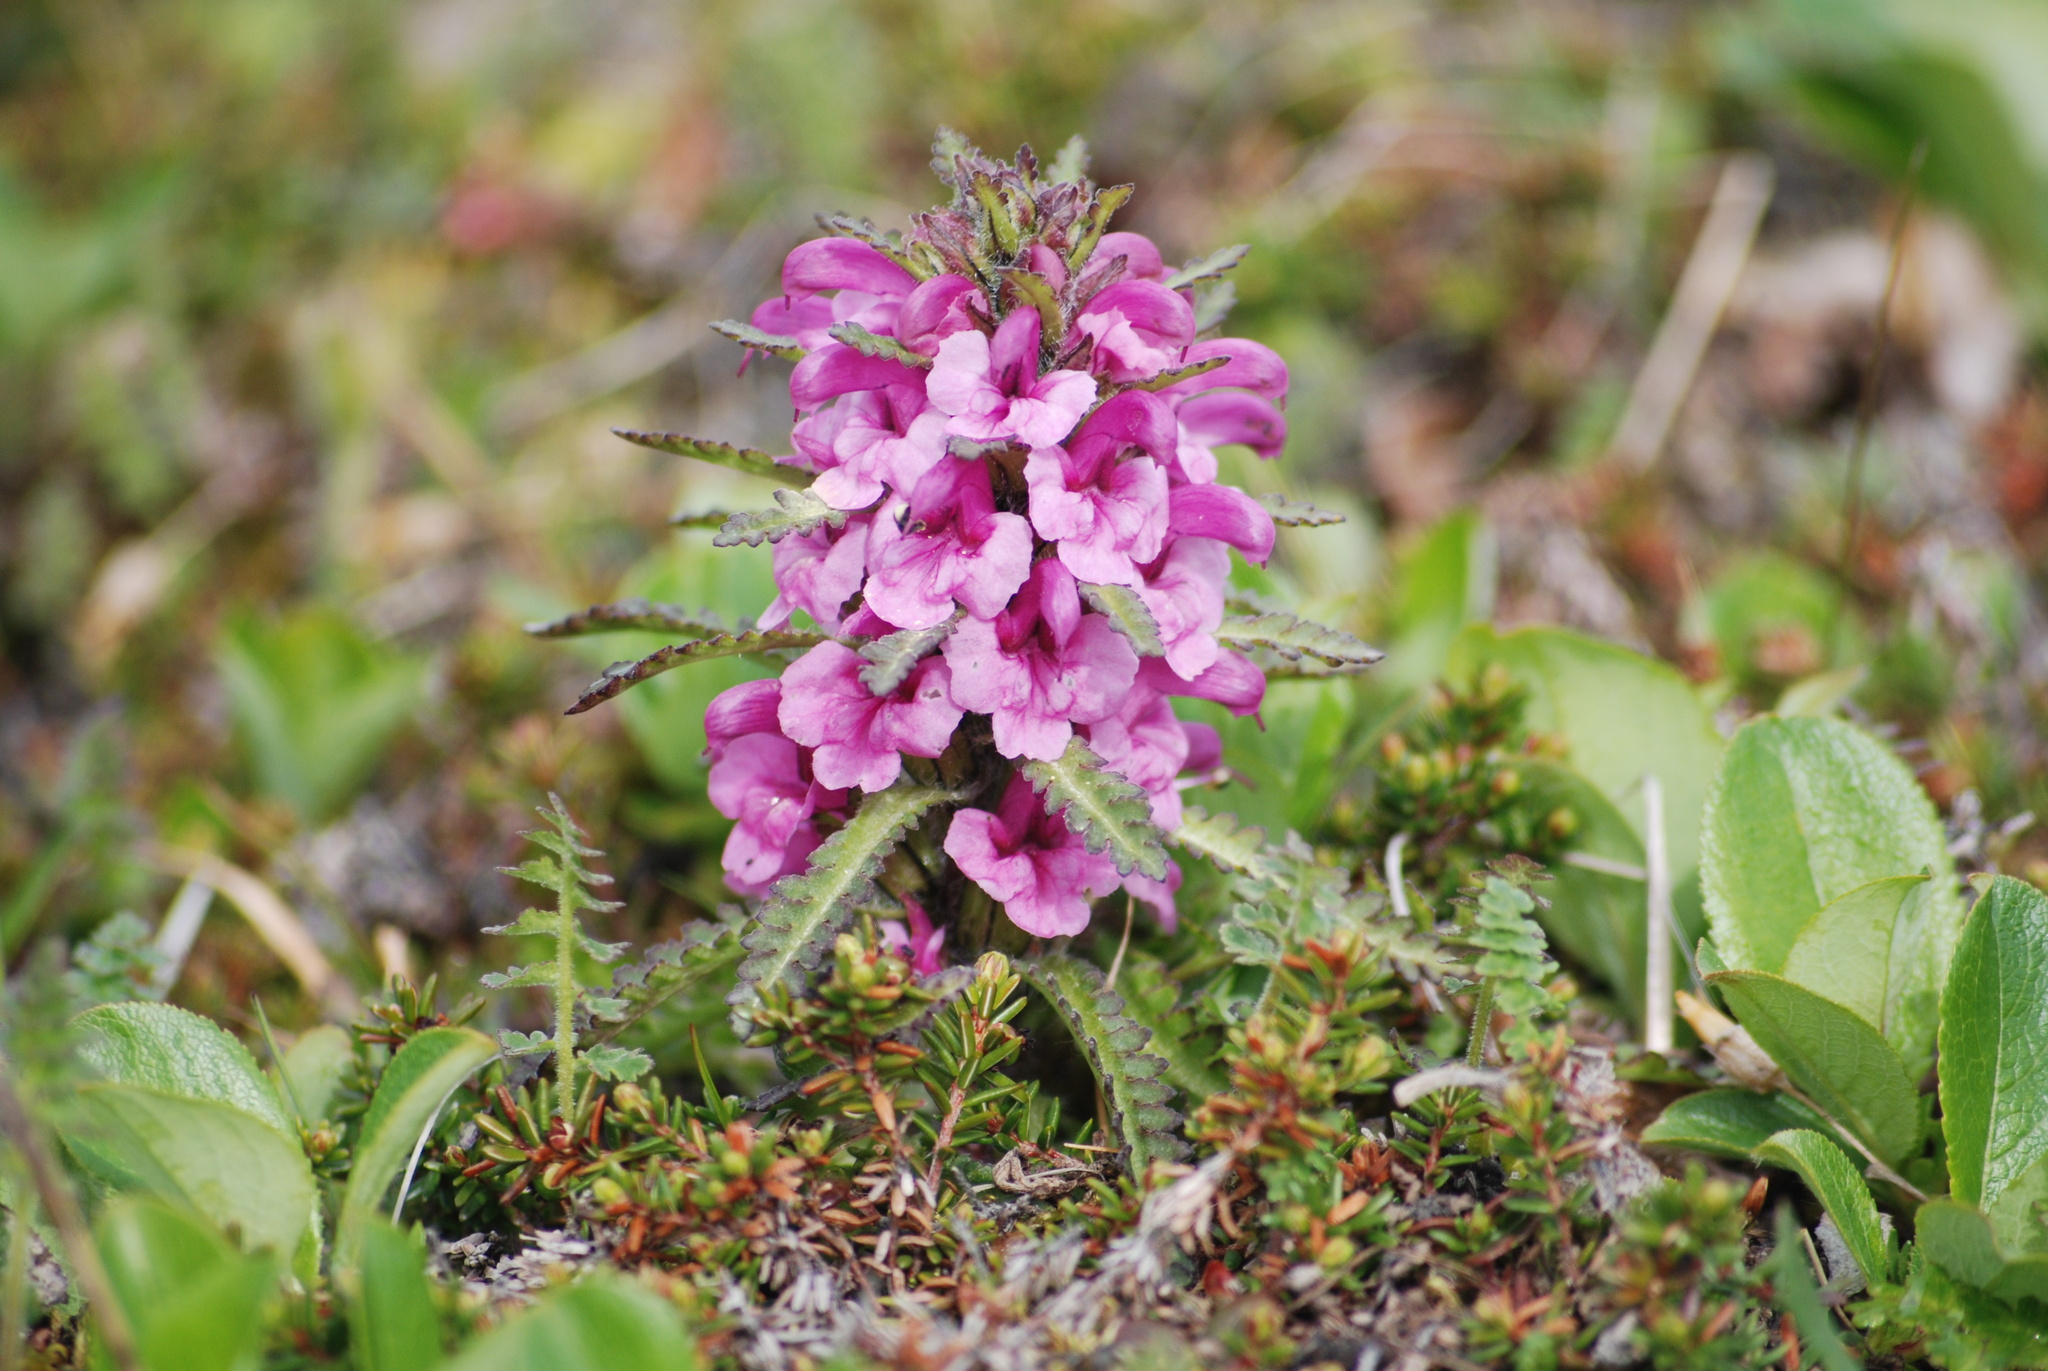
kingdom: Plantae
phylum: Tracheophyta
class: Magnoliopsida
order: Lamiales
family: Orobanchaceae
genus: Pedicularis
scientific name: Pedicularis langsdorffii
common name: Langsdorff's lousewort
